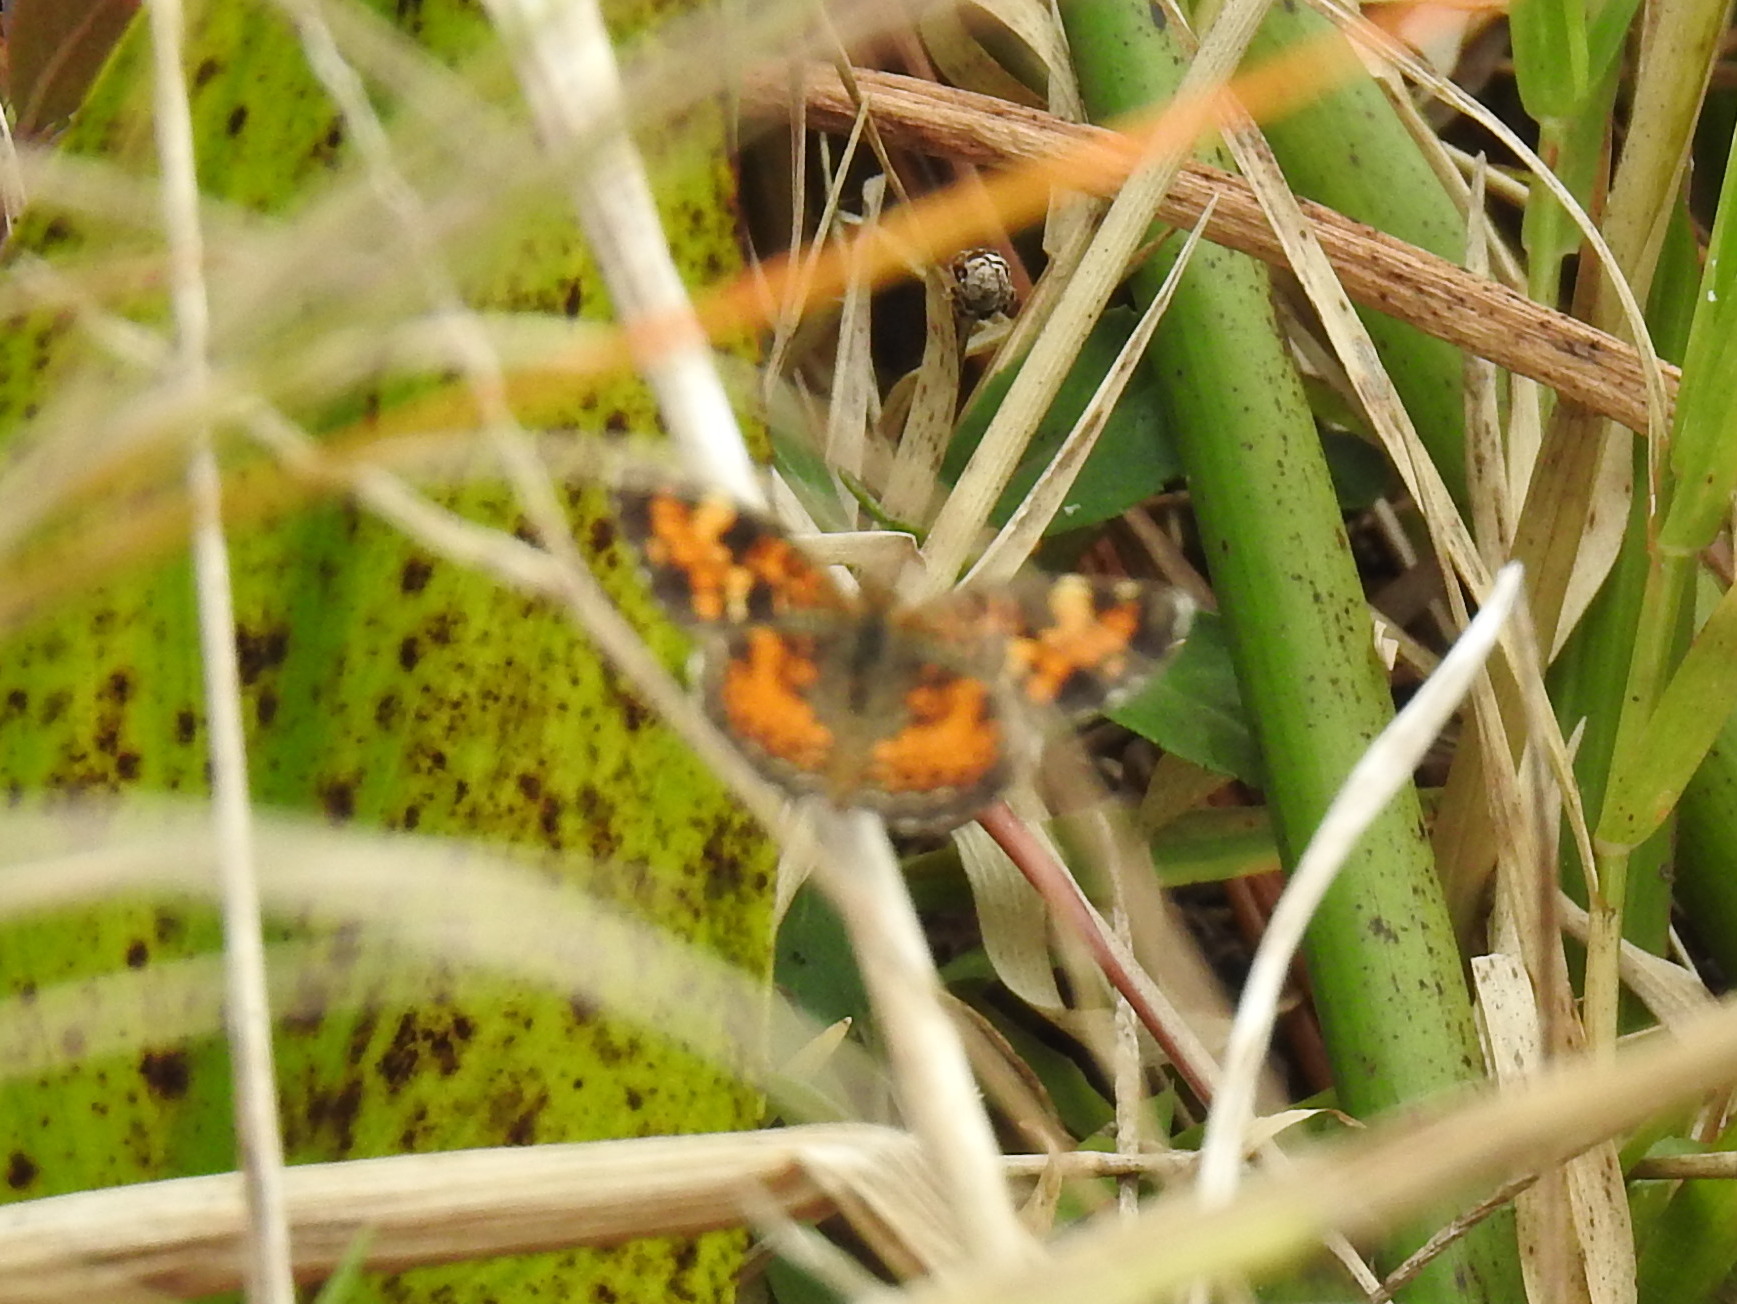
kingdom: Animalia
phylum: Arthropoda
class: Insecta
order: Lepidoptera
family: Nymphalidae
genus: Phyciodes
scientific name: Phyciodes phaon
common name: Phaon crescent
